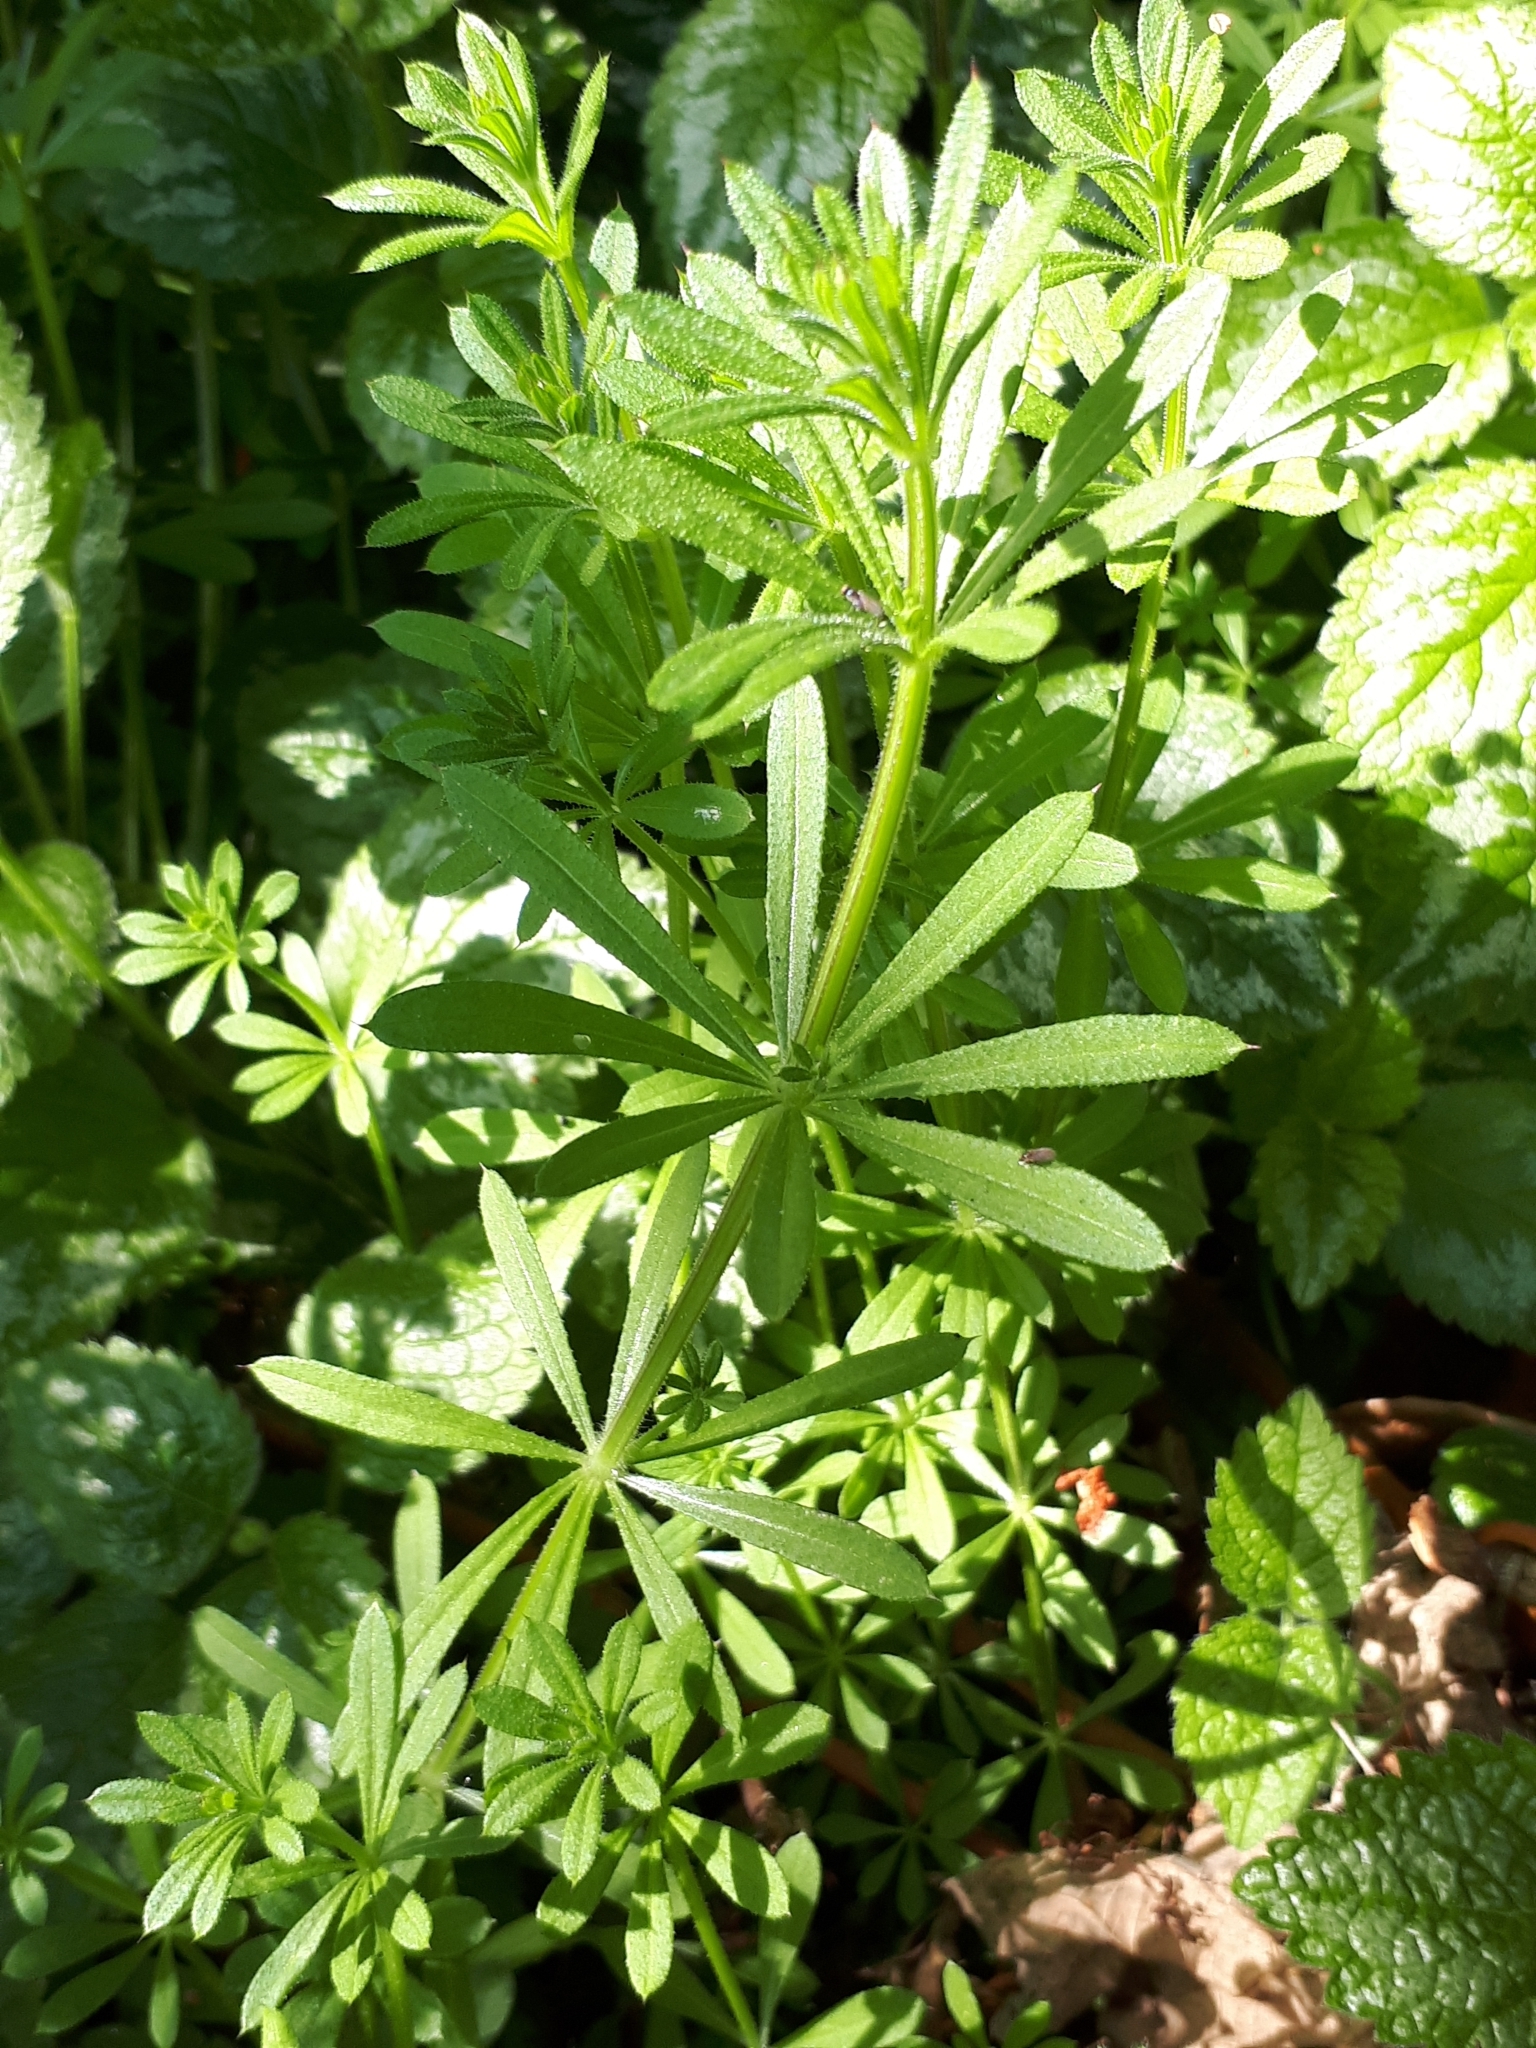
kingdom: Plantae
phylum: Tracheophyta
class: Magnoliopsida
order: Gentianales
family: Rubiaceae
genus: Galium
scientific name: Galium aparine
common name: Cleavers
